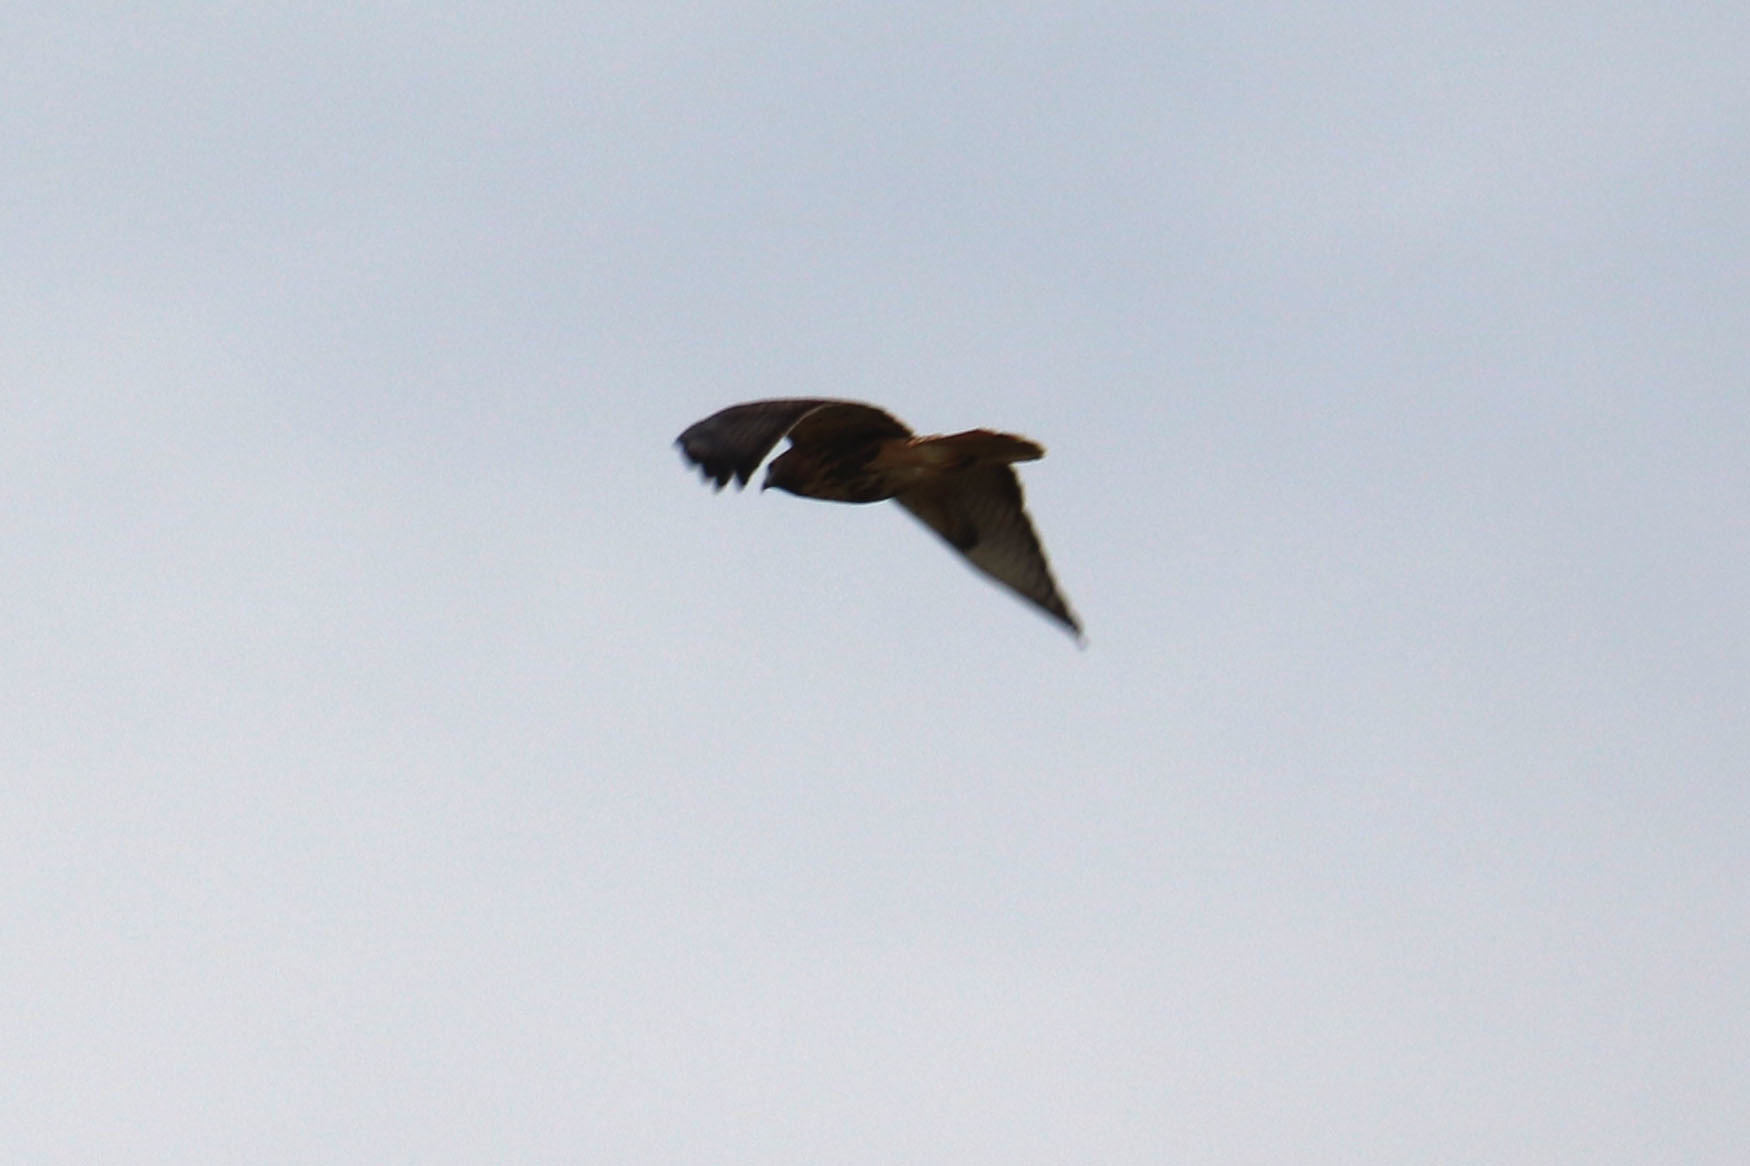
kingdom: Animalia
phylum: Chordata
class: Aves
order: Accipitriformes
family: Accipitridae
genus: Buteo
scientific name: Buteo jamaicensis
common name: Red-tailed hawk
